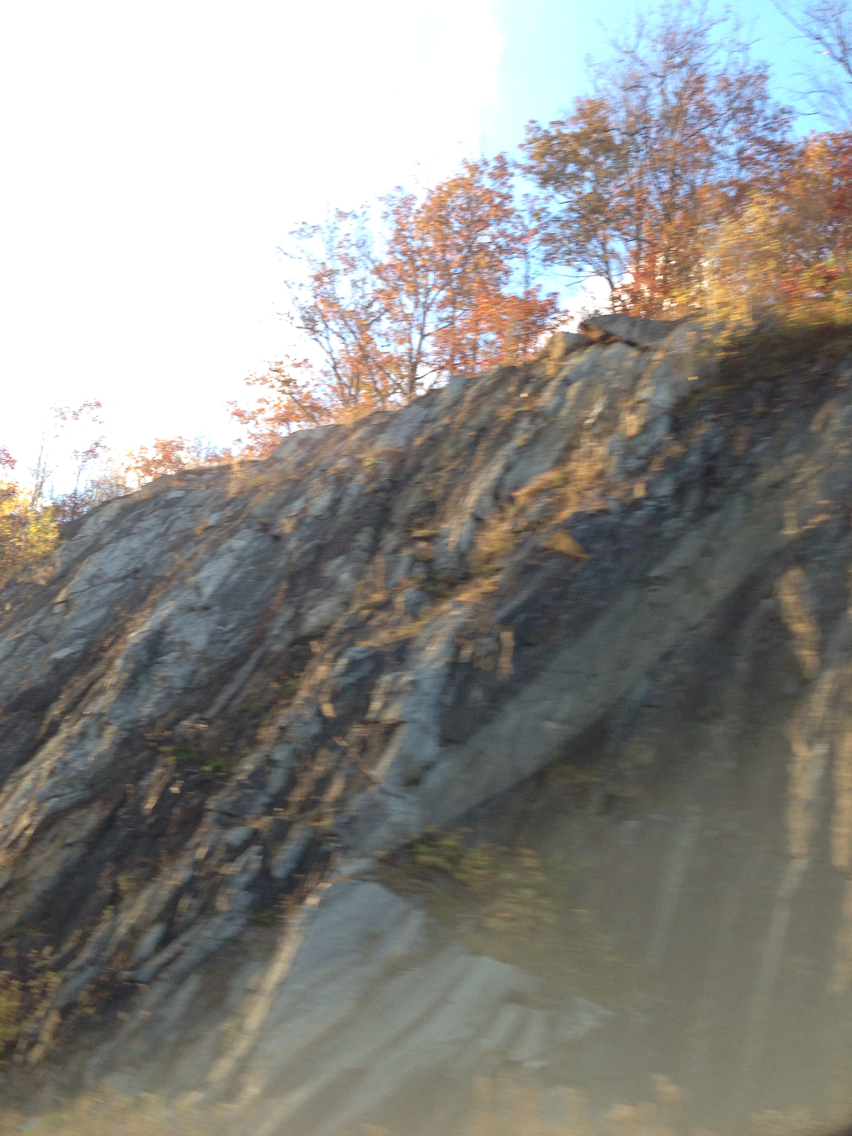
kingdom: Plantae
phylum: Tracheophyta
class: Magnoliopsida
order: Fagales
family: Fagaceae
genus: Quercus
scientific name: Quercus rubra
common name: Red oak
